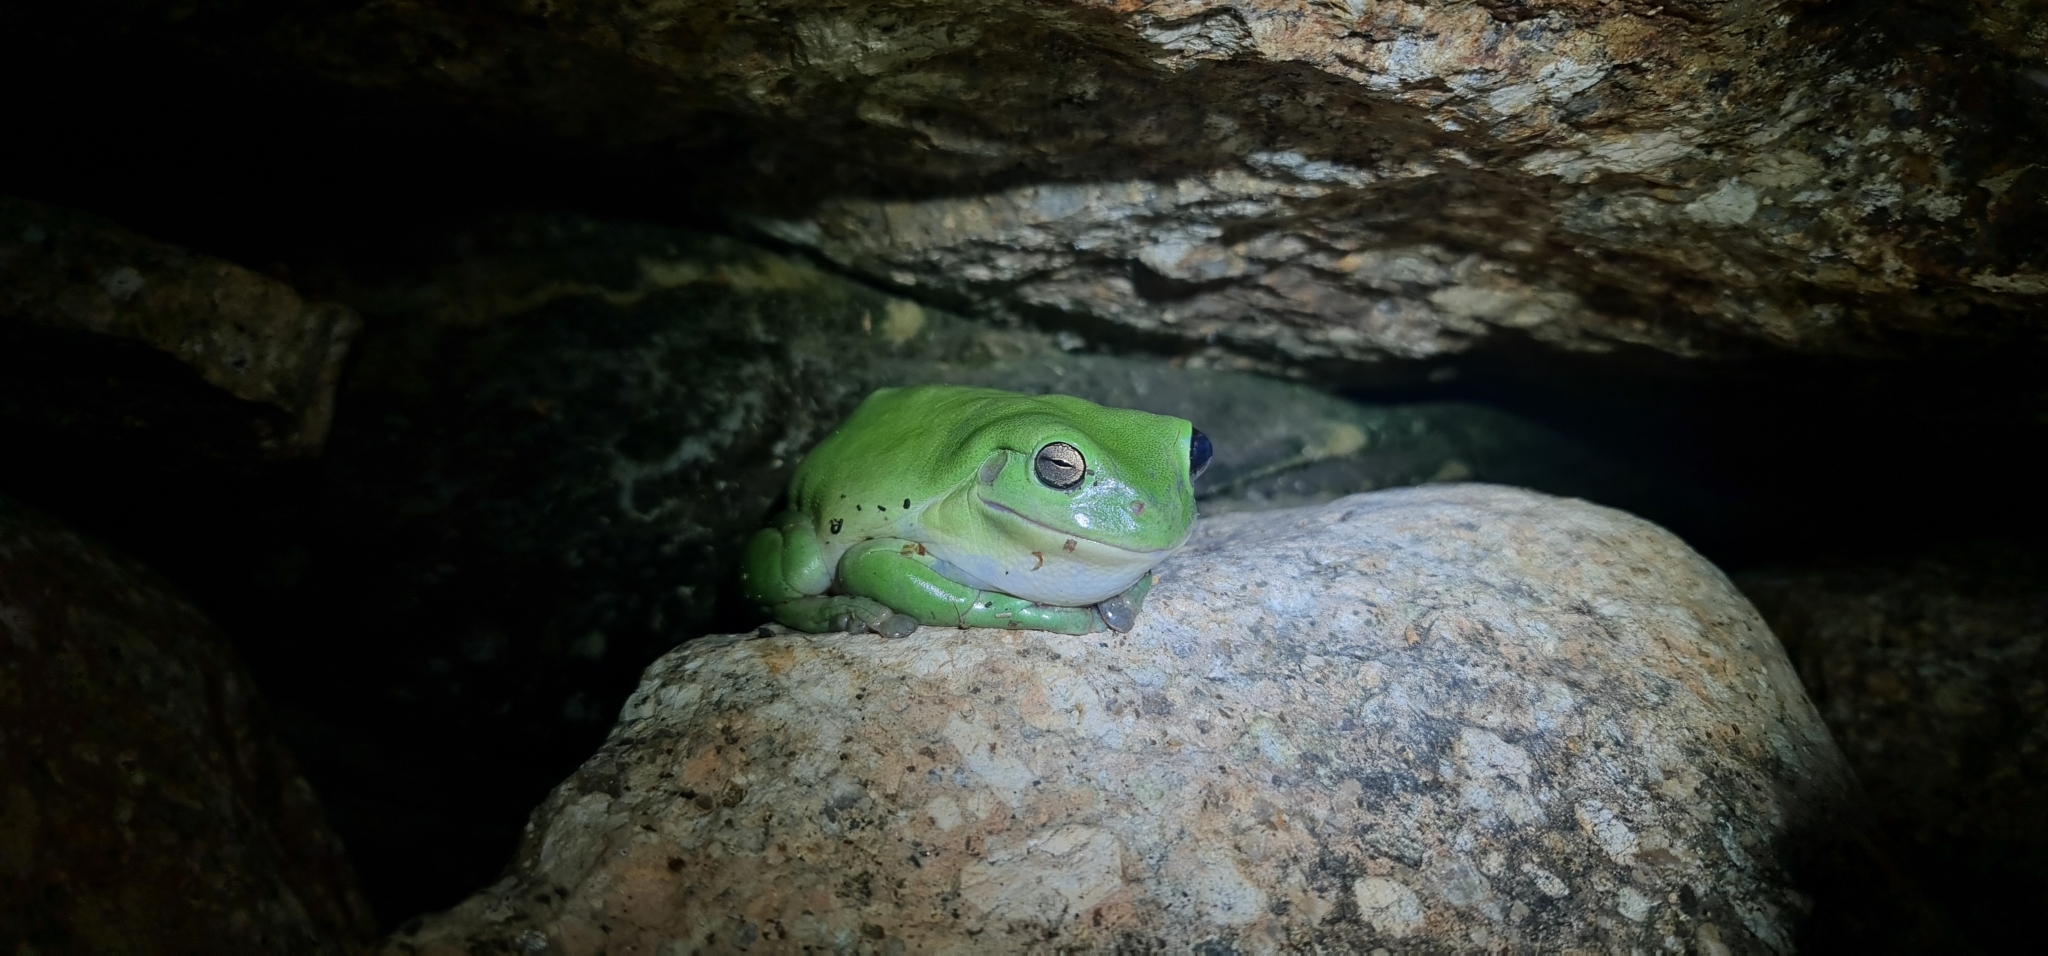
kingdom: Animalia
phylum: Chordata
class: Amphibia
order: Anura
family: Pelodryadidae
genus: Ranoidea
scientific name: Ranoidea caerulea
